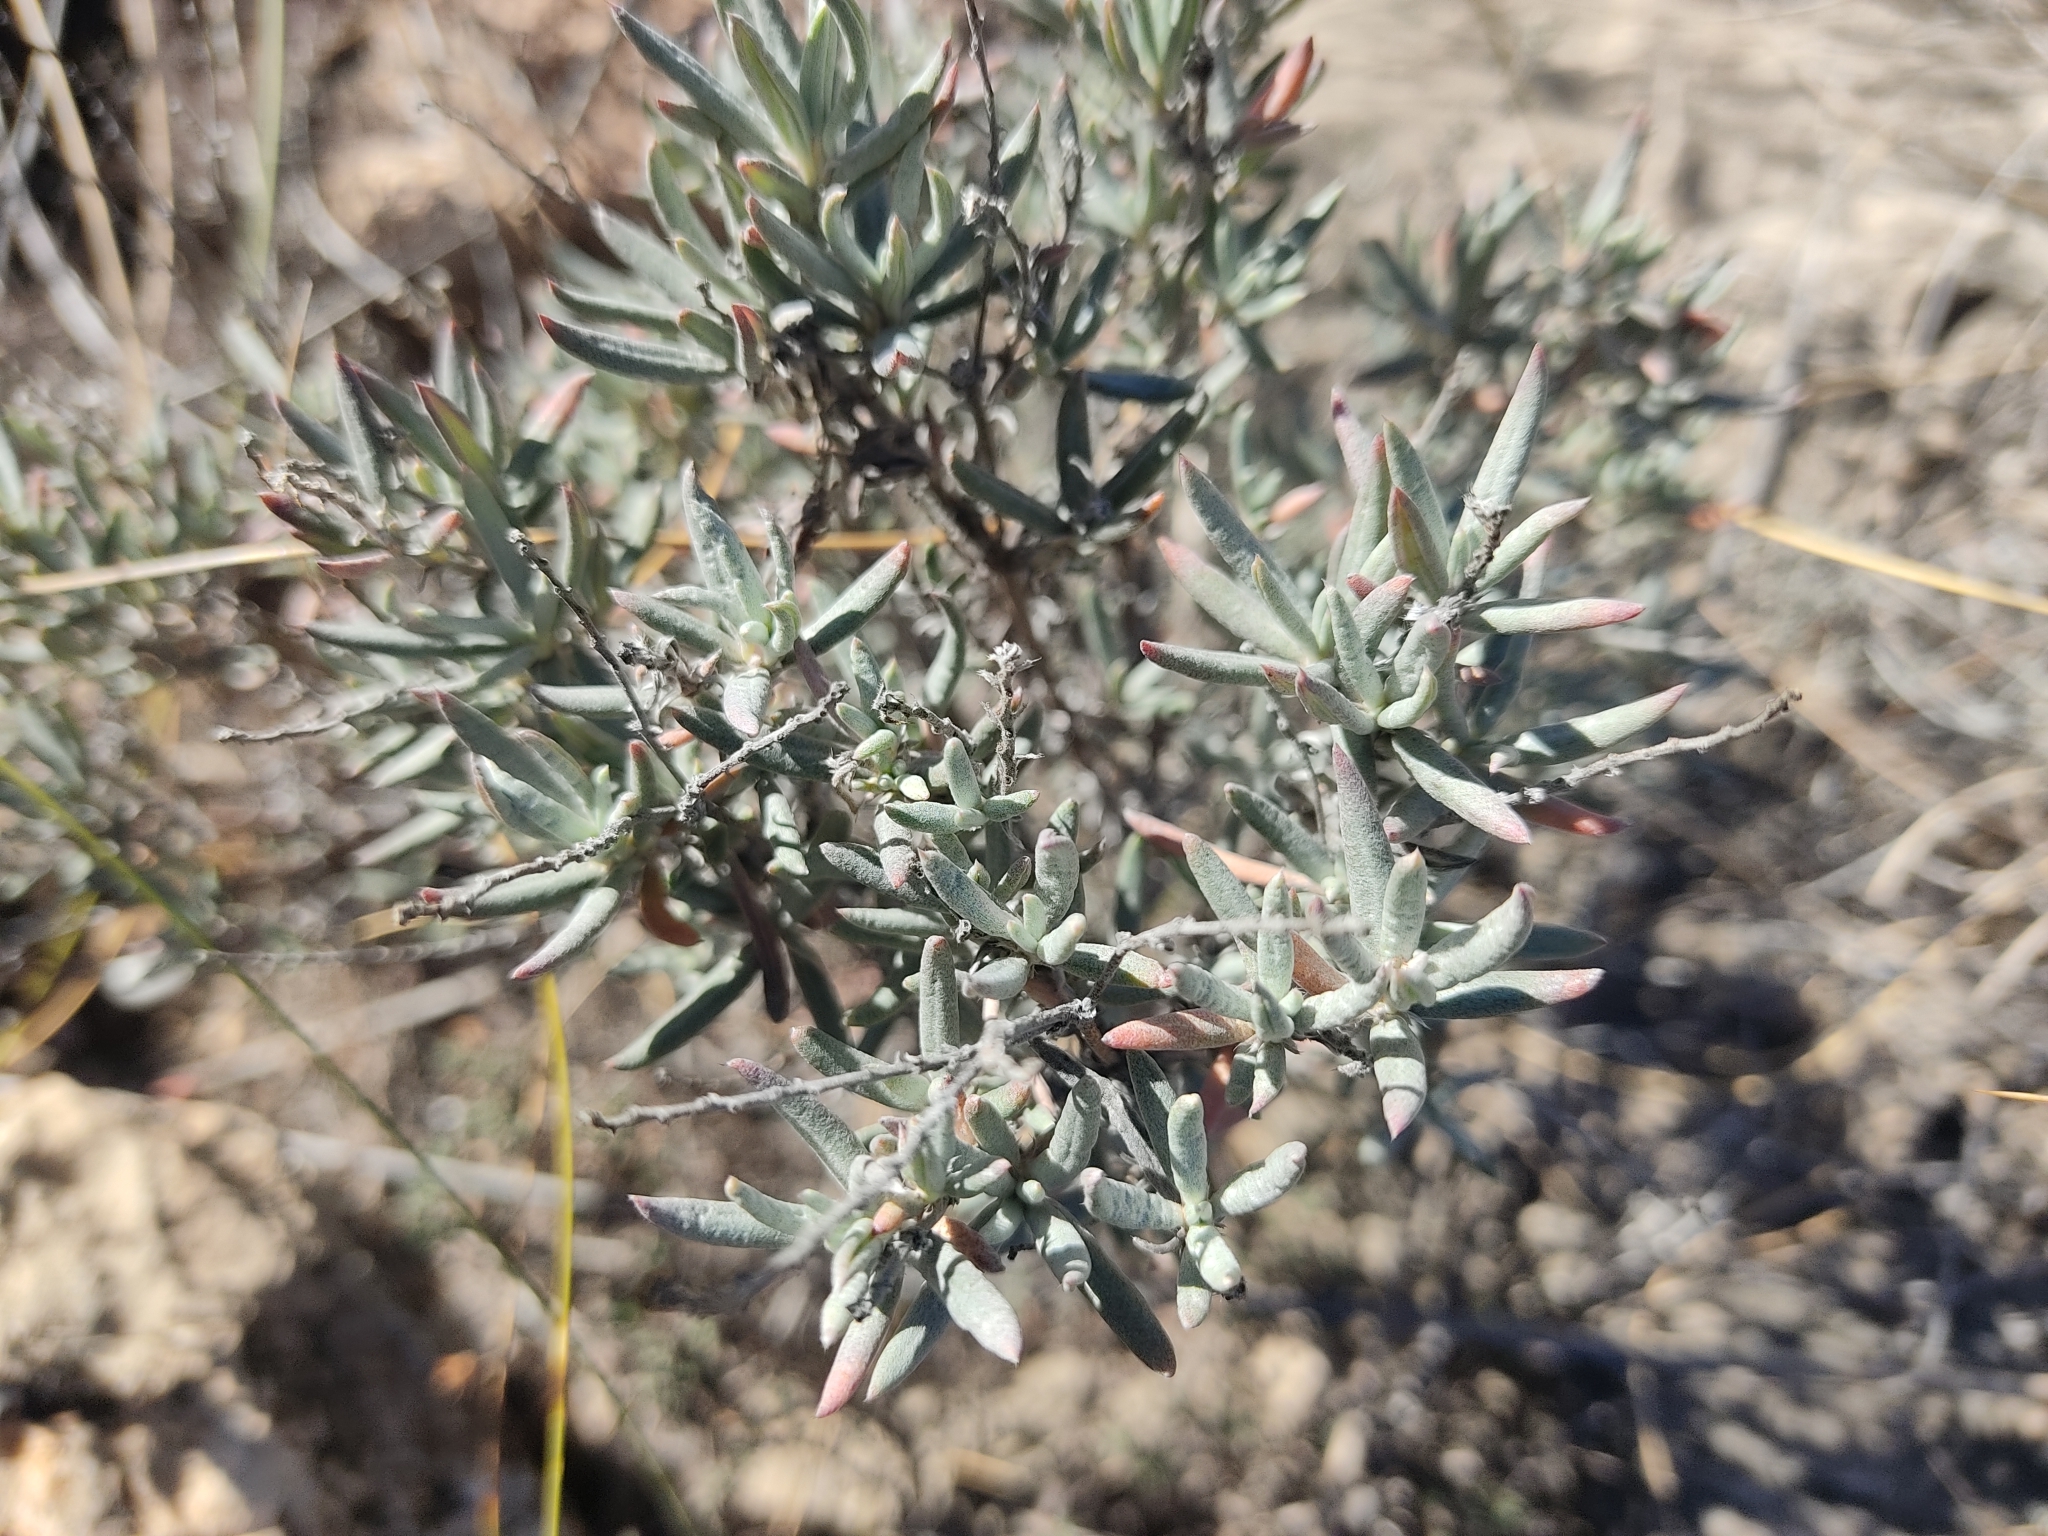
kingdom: Plantae
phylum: Tracheophyta
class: Magnoliopsida
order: Malvales
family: Cistaceae
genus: Helianthemum
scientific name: Helianthemum syriacum
